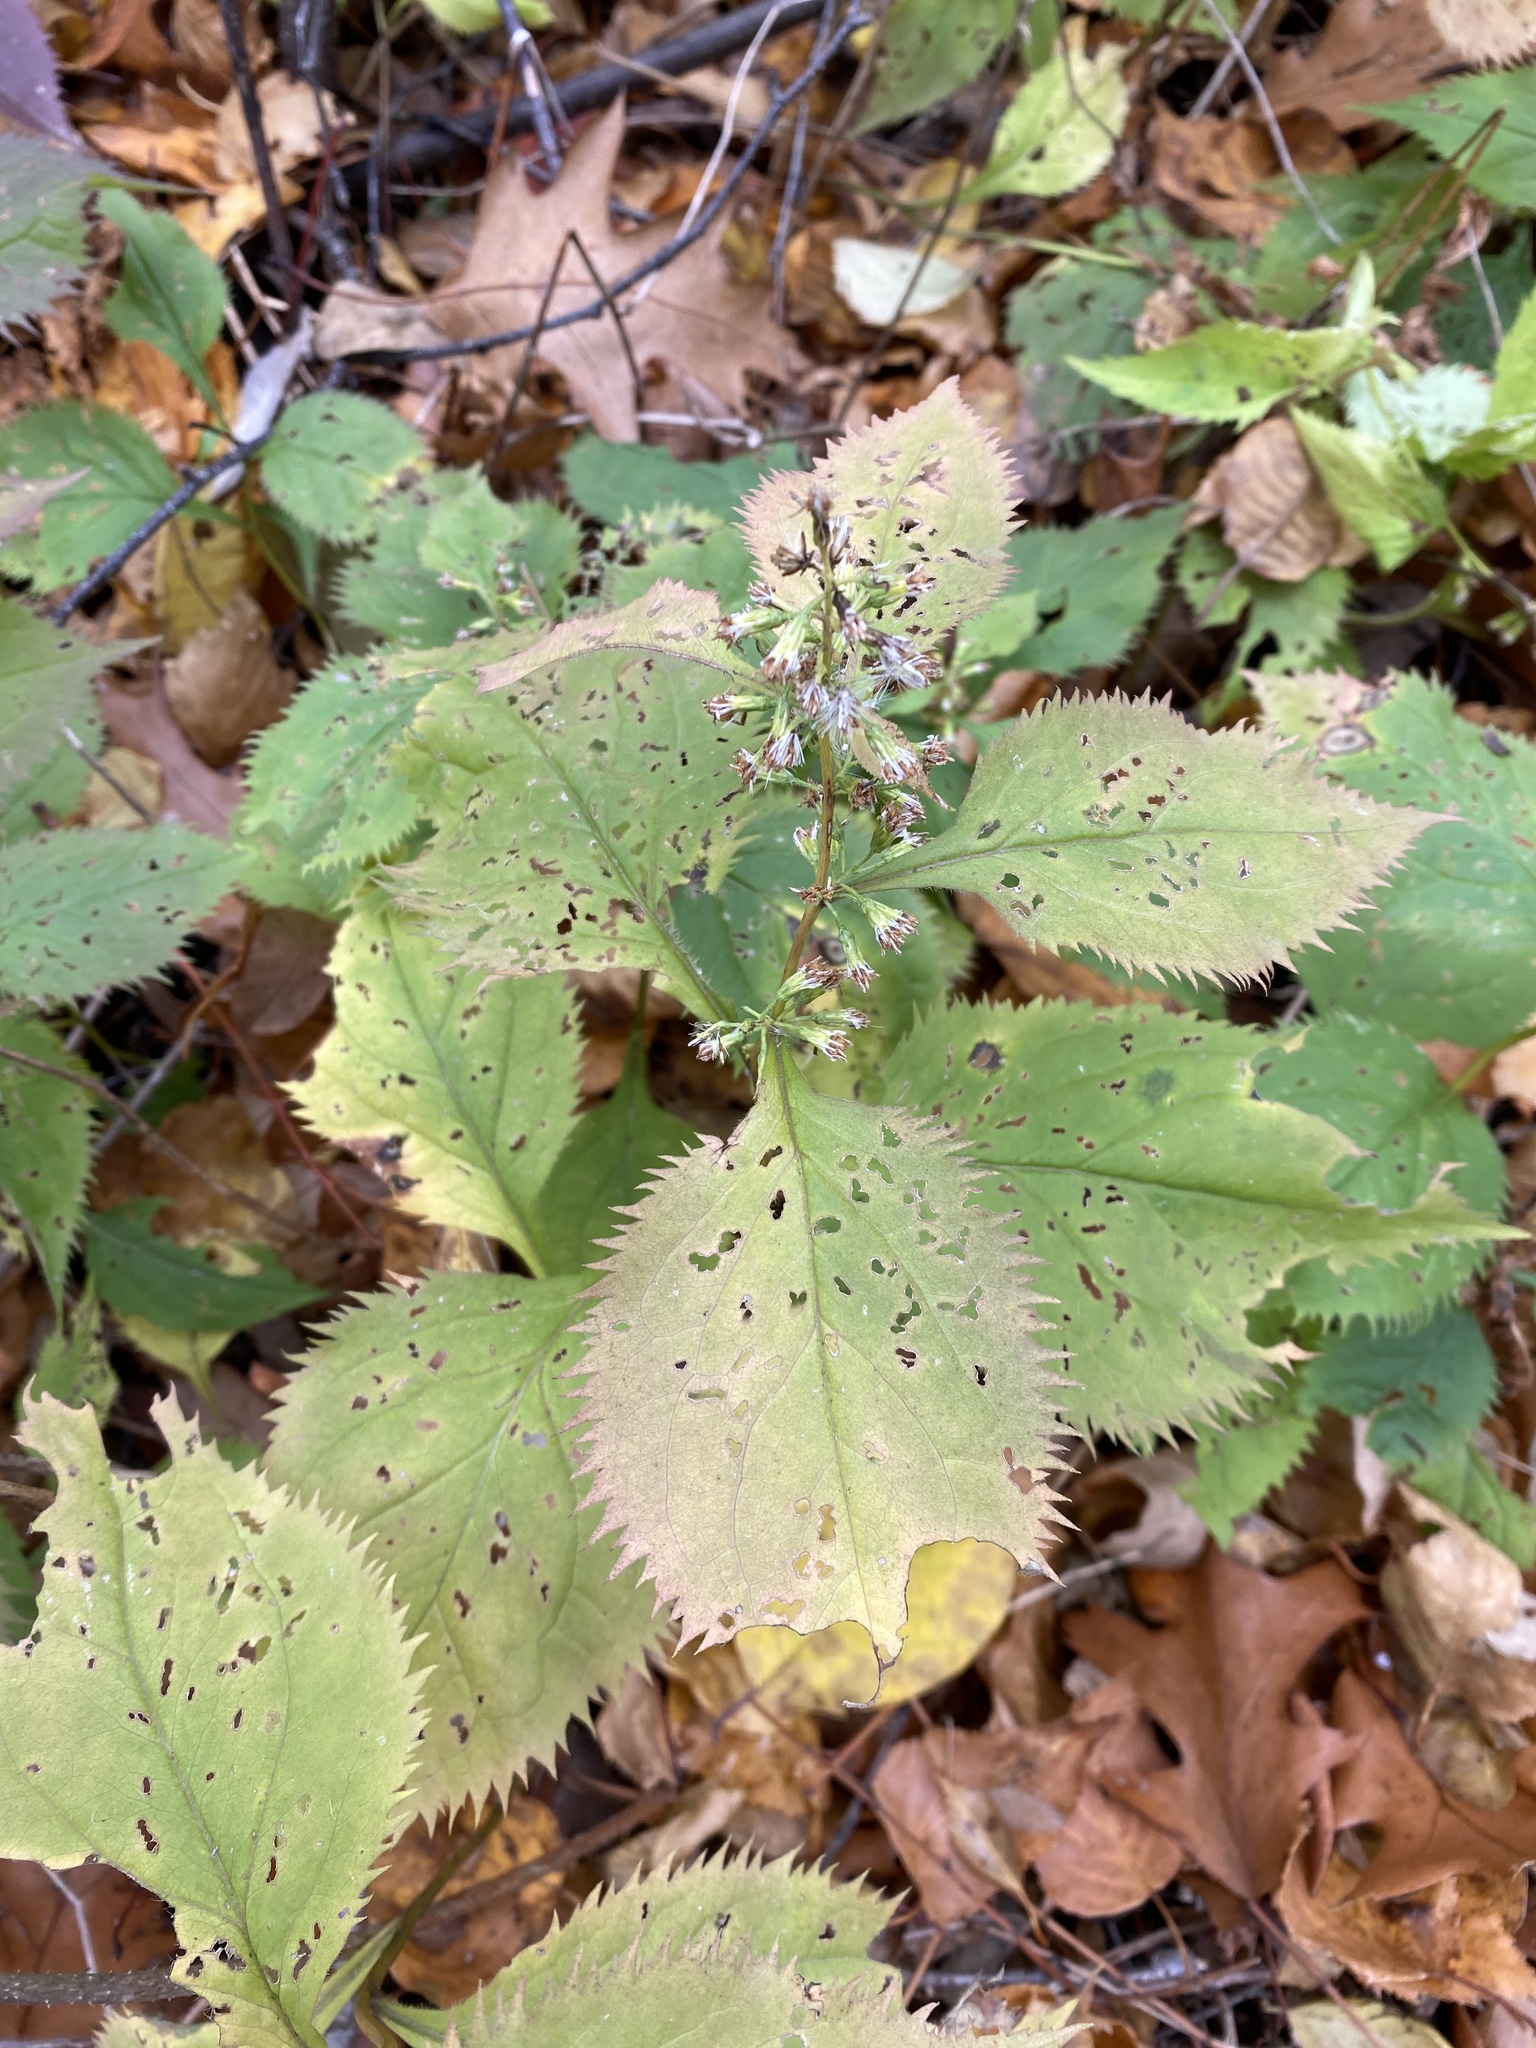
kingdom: Plantae
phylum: Tracheophyta
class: Magnoliopsida
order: Asterales
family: Asteraceae
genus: Solidago
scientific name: Solidago flexicaulis
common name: Zig-zag goldenrod
